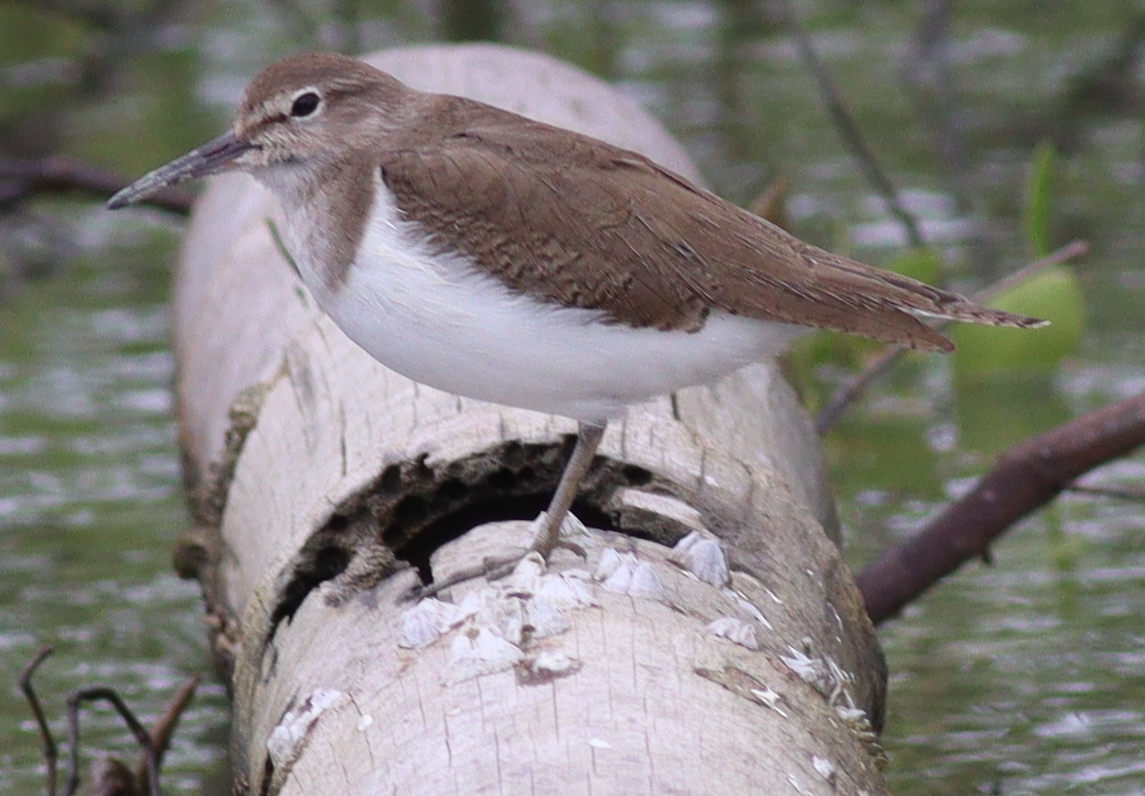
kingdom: Animalia
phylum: Chordata
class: Aves
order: Charadriiformes
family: Scolopacidae
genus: Actitis
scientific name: Actitis hypoleucos
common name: Common sandpiper
